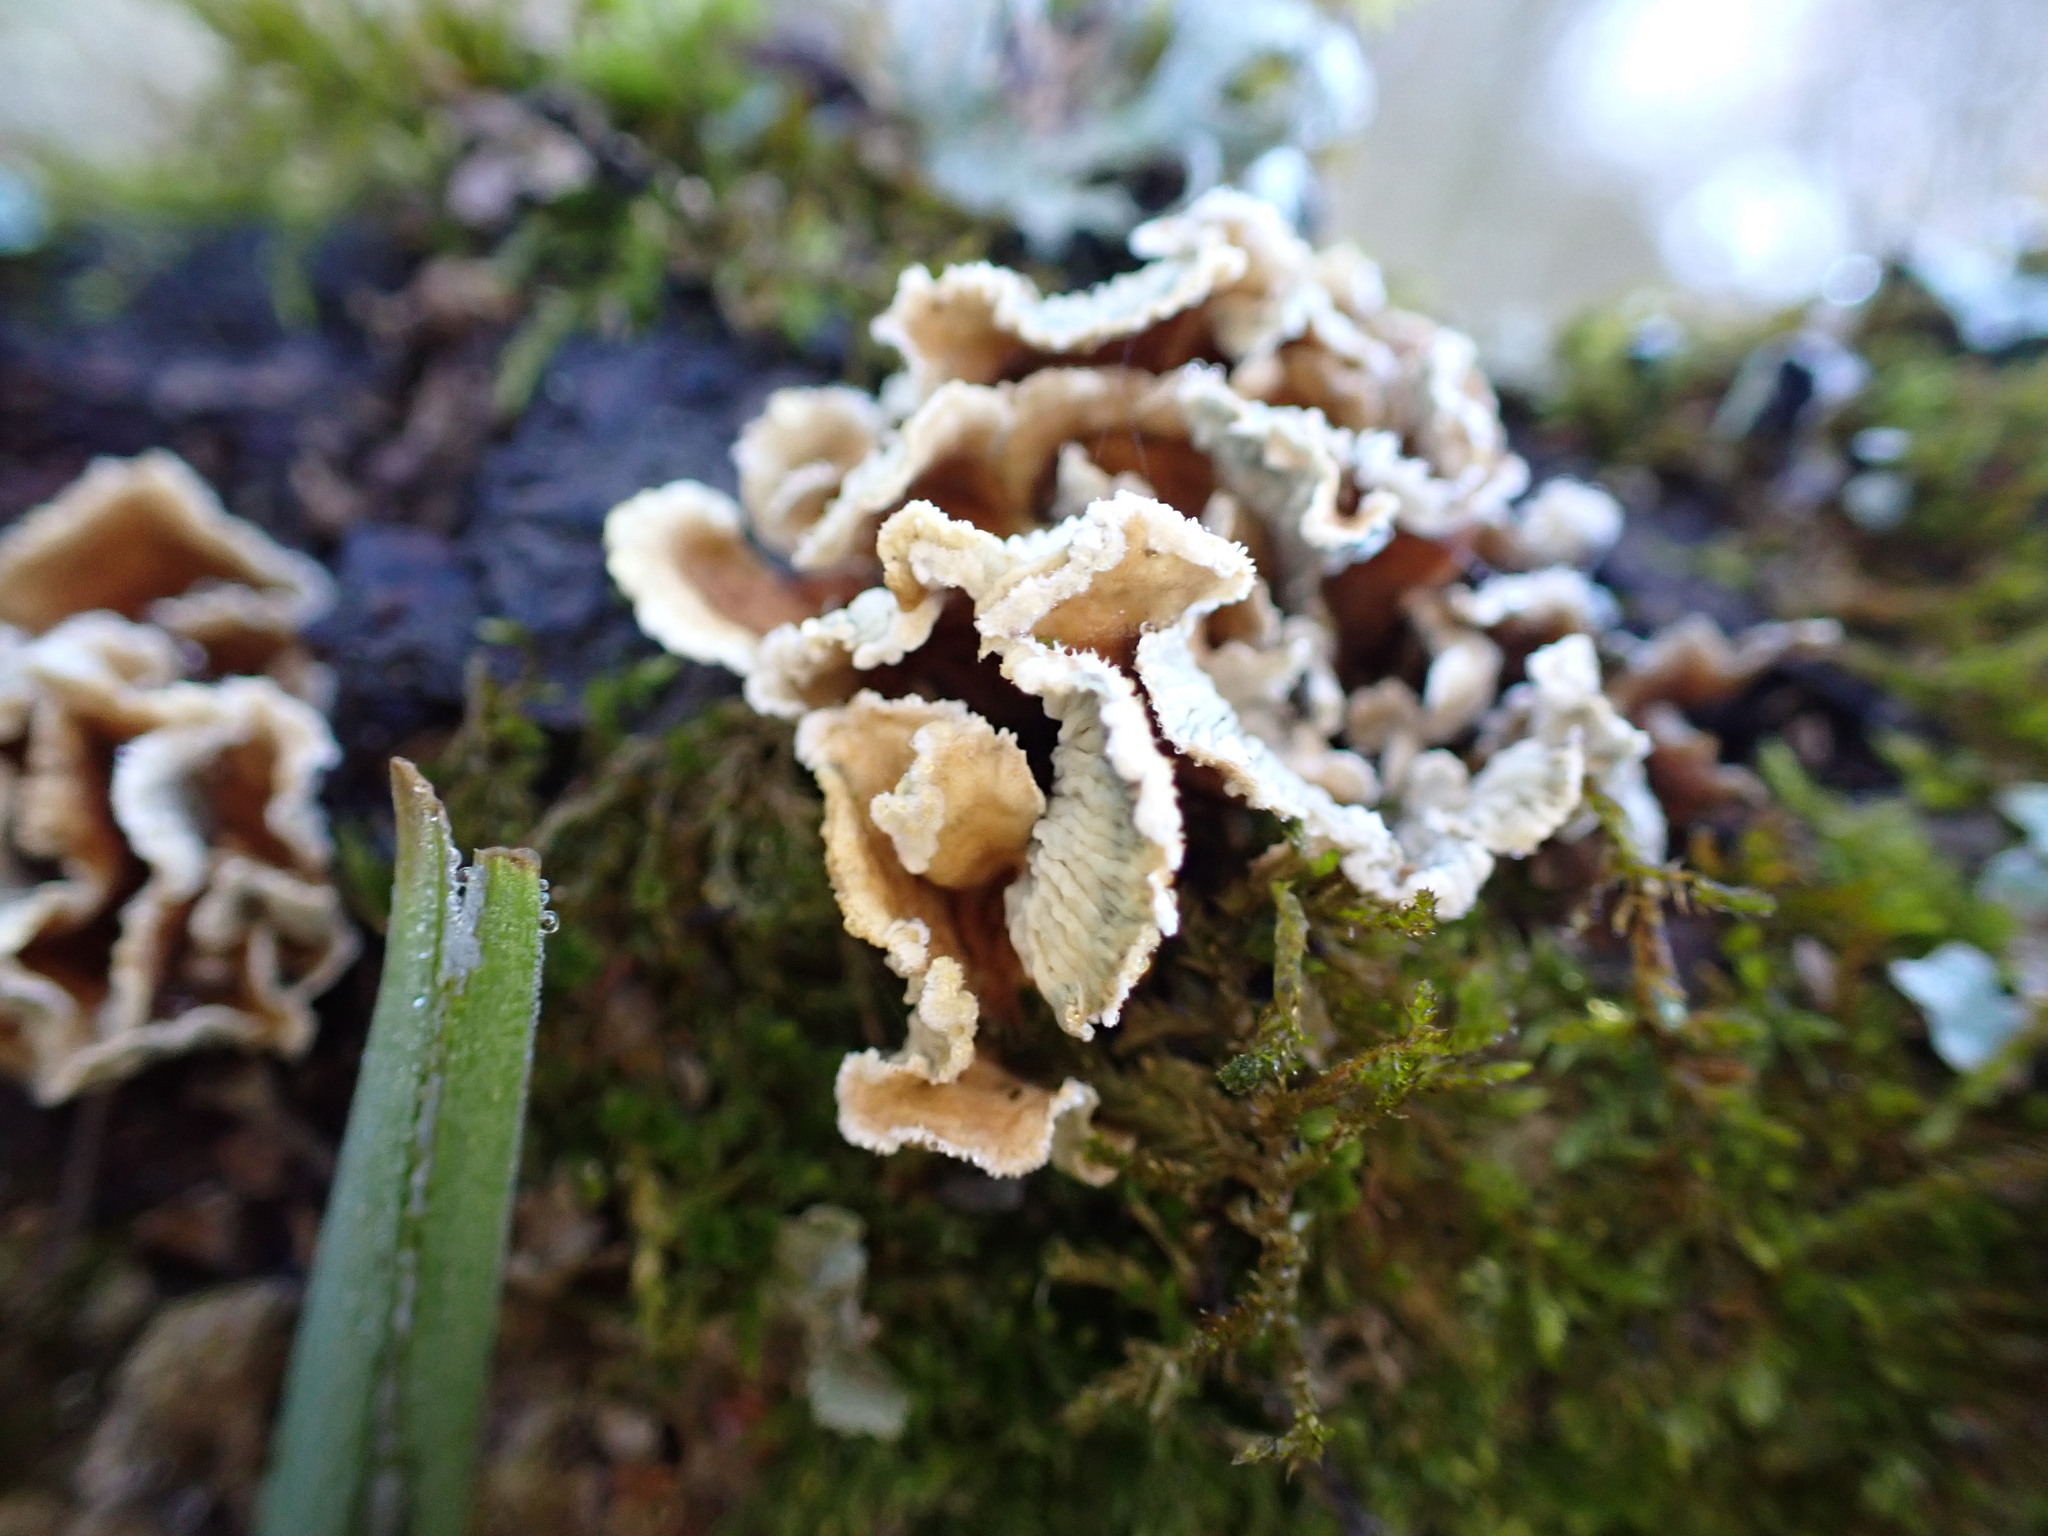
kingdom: Fungi
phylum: Basidiomycota
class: Agaricomycetes
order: Amylocorticiales
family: Amylocorticiaceae
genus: Plicaturopsis
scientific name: Plicaturopsis crispa
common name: Crimped gill
